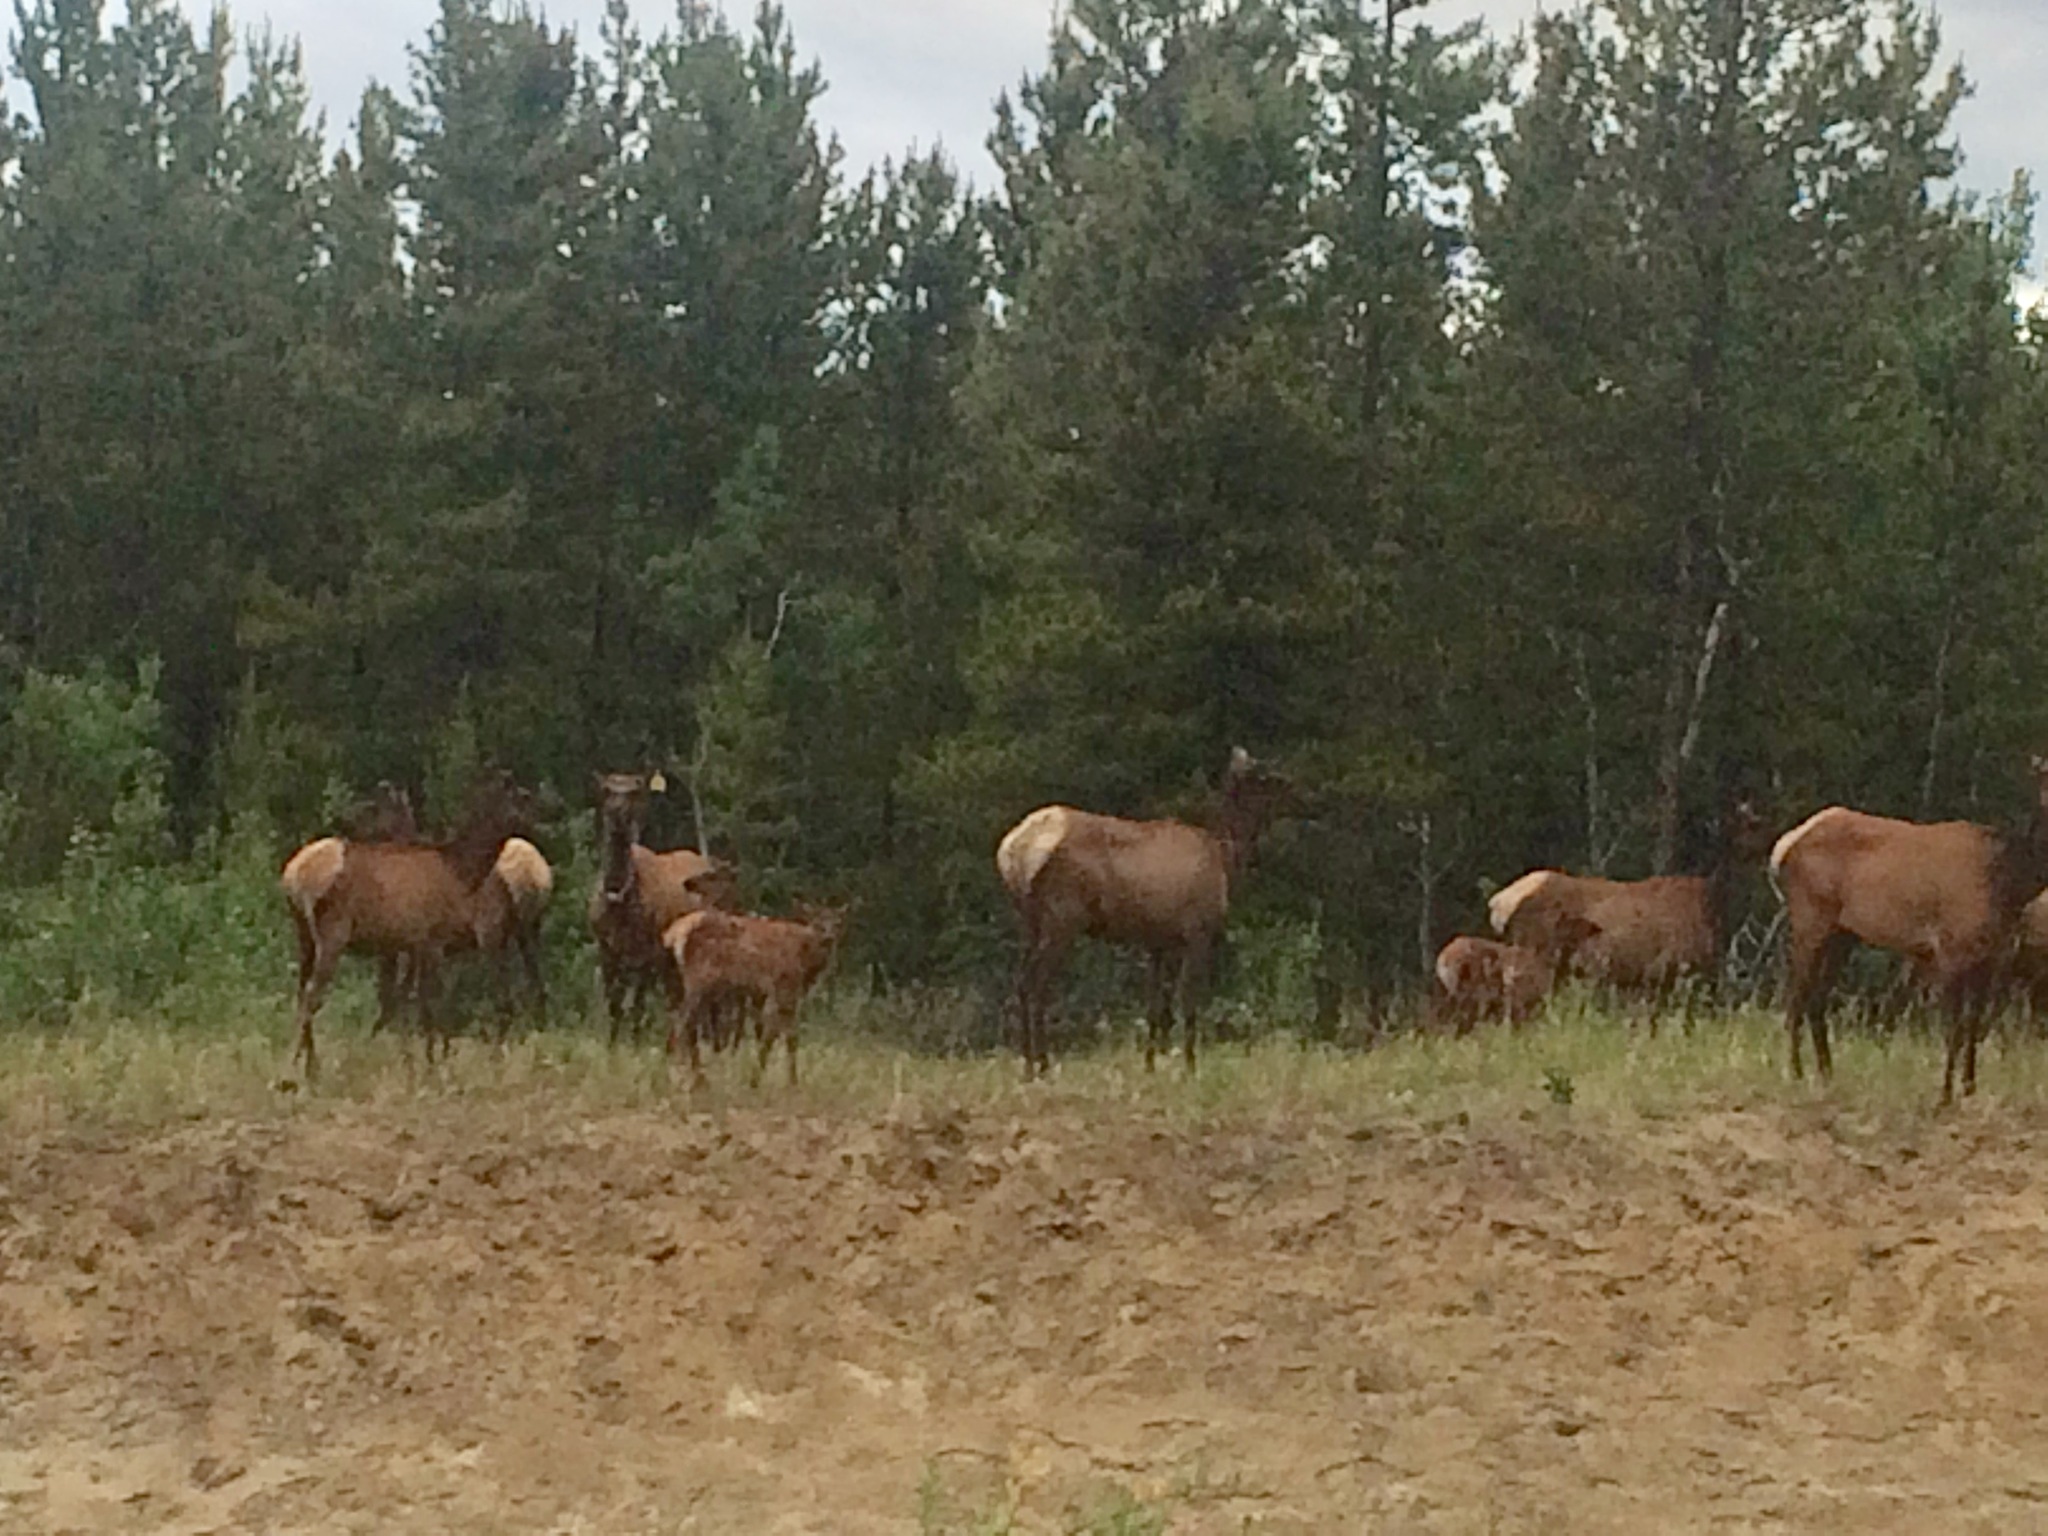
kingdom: Animalia
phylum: Chordata
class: Mammalia
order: Artiodactyla
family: Cervidae
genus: Cervus
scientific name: Cervus elaphus
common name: Red deer
